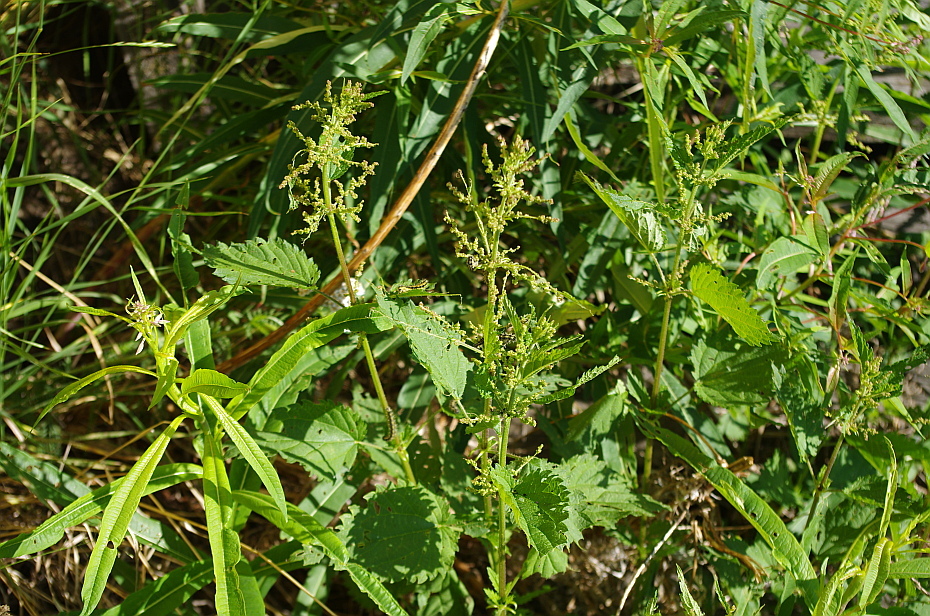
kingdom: Plantae
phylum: Tracheophyta
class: Magnoliopsida
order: Rosales
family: Urticaceae
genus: Urtica
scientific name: Urtica dioica
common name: Common nettle
